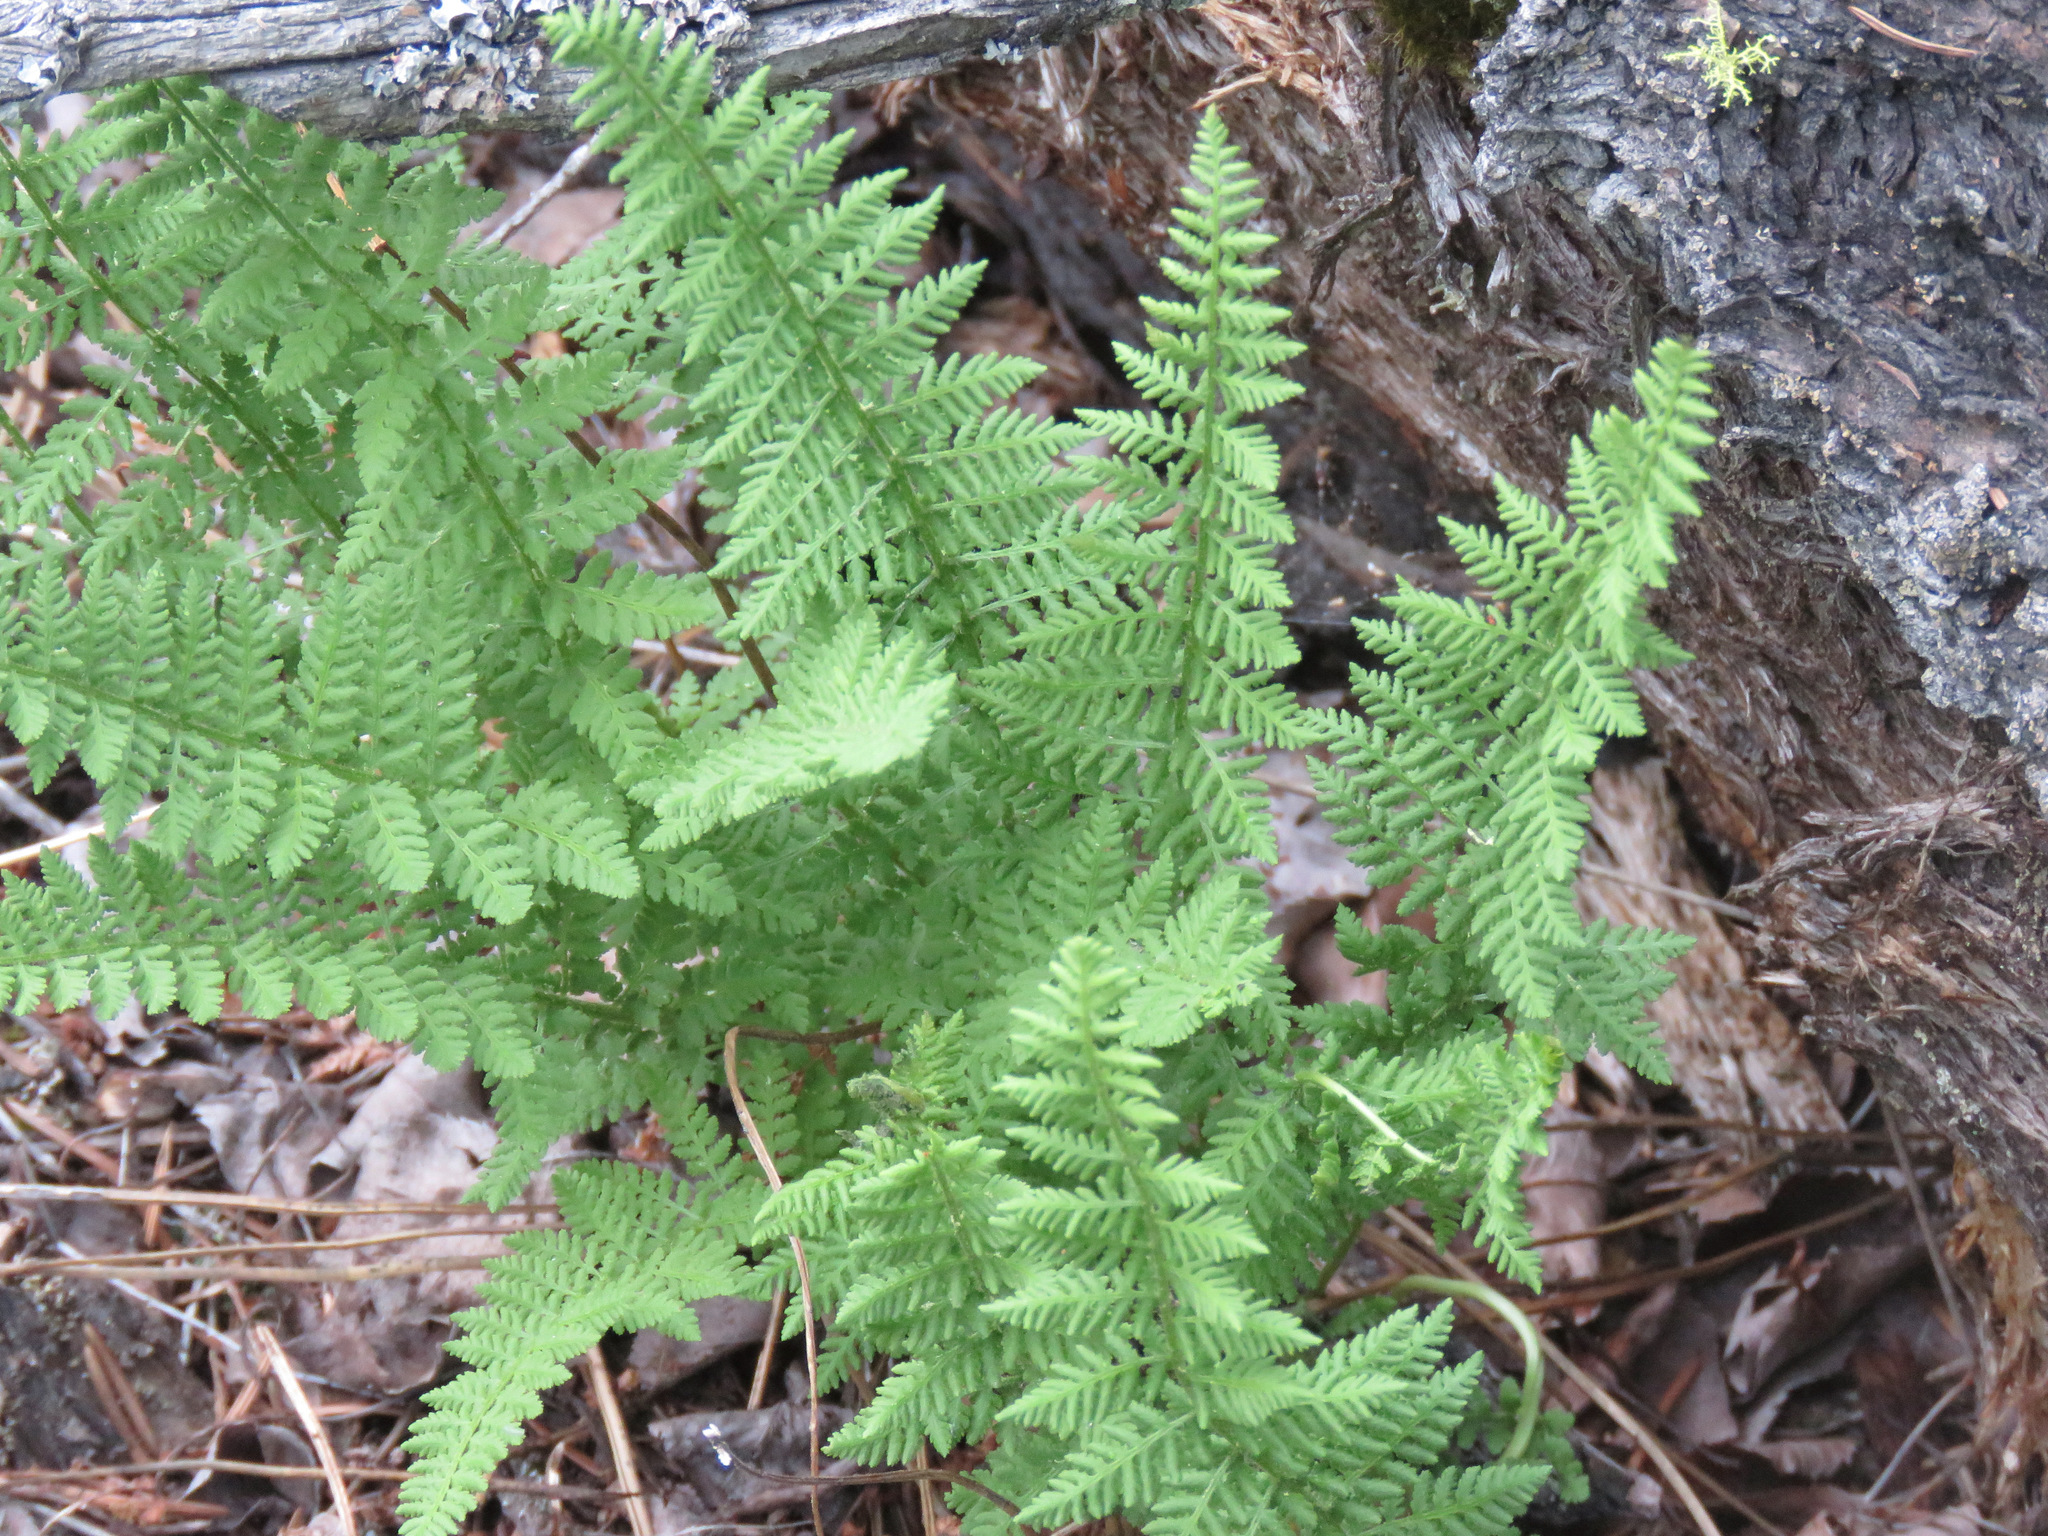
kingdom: Plantae
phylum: Tracheophyta
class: Polypodiopsida
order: Polypodiales
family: Woodsiaceae
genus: Physematium
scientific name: Physematium scopulinum
